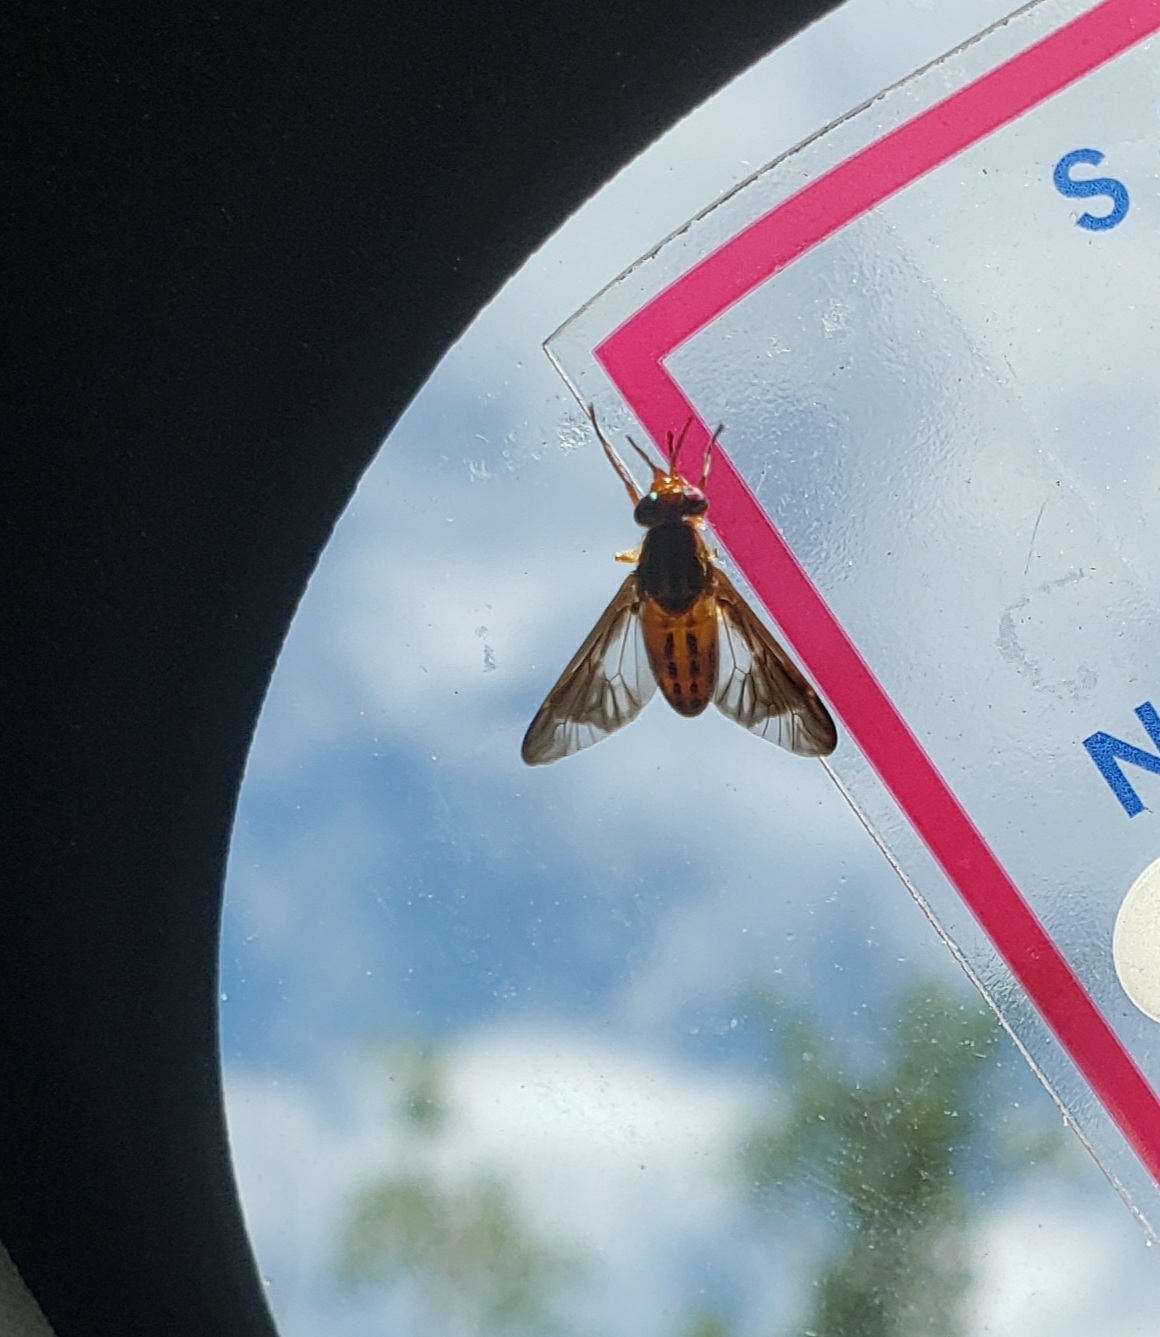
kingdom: Animalia
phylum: Arthropoda
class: Insecta
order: Diptera
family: Tabanidae
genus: Chrysops
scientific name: Chrysops vittatus
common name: Striped deer fly
